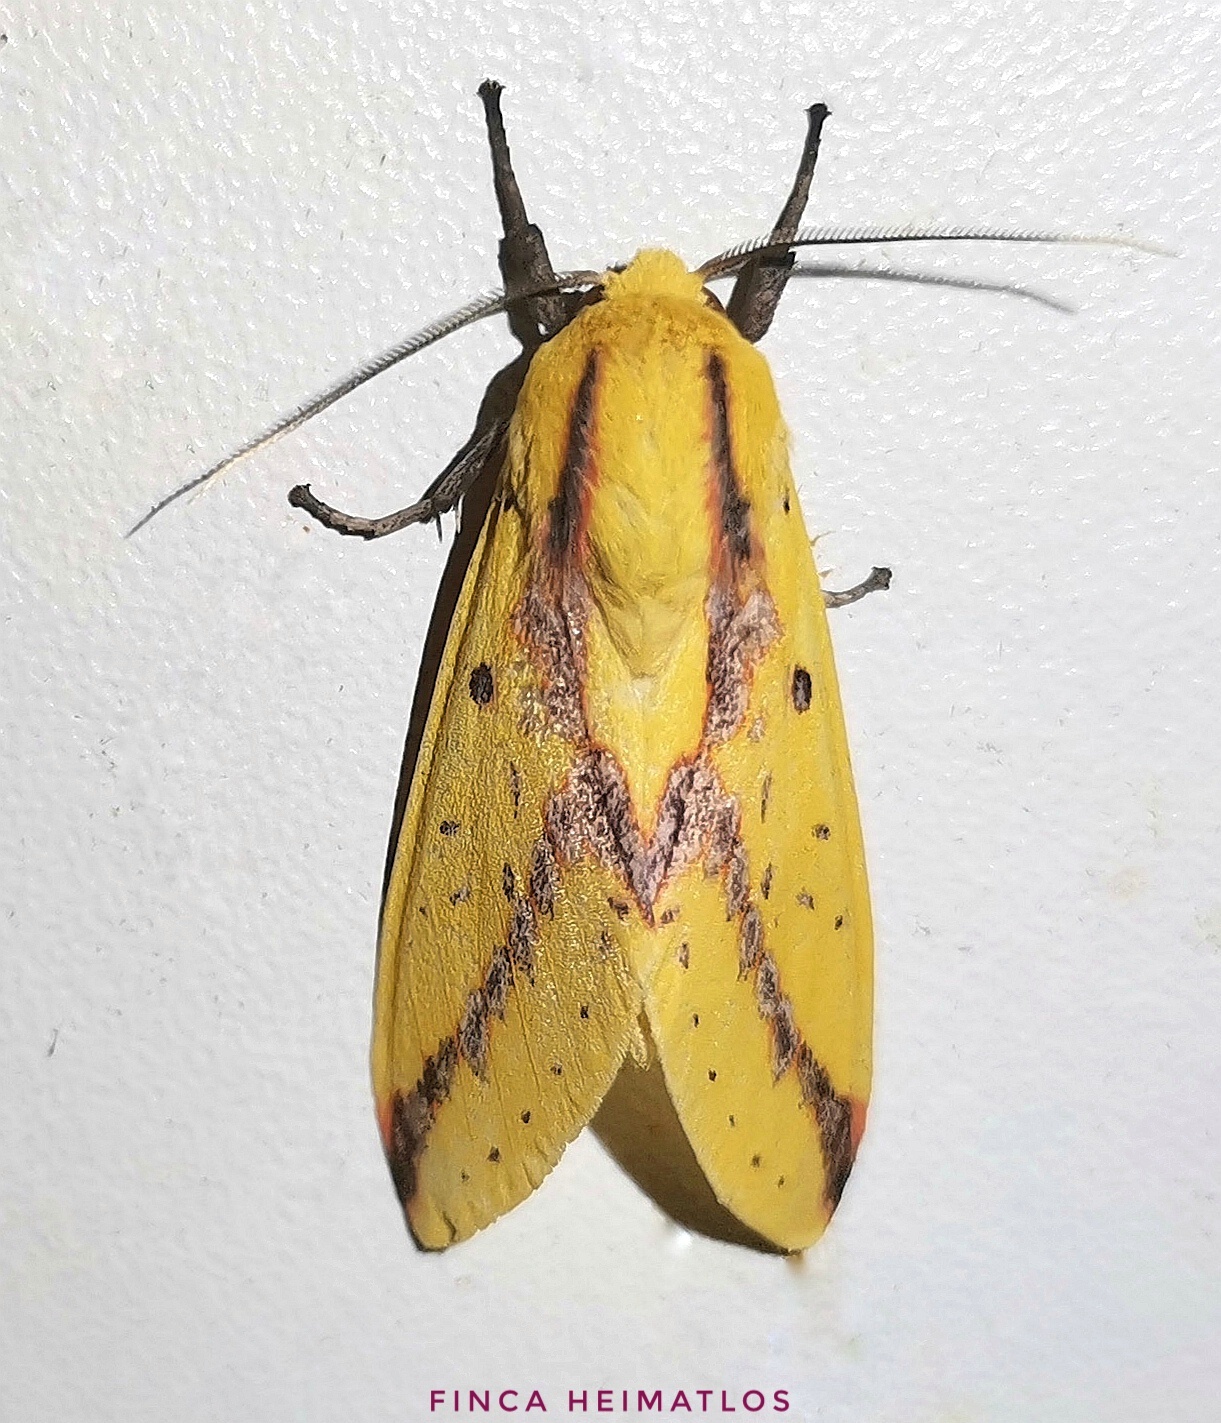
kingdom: Animalia
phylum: Arthropoda
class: Insecta
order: Lepidoptera
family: Erebidae
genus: Symphlebia
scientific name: Symphlebia suanus
